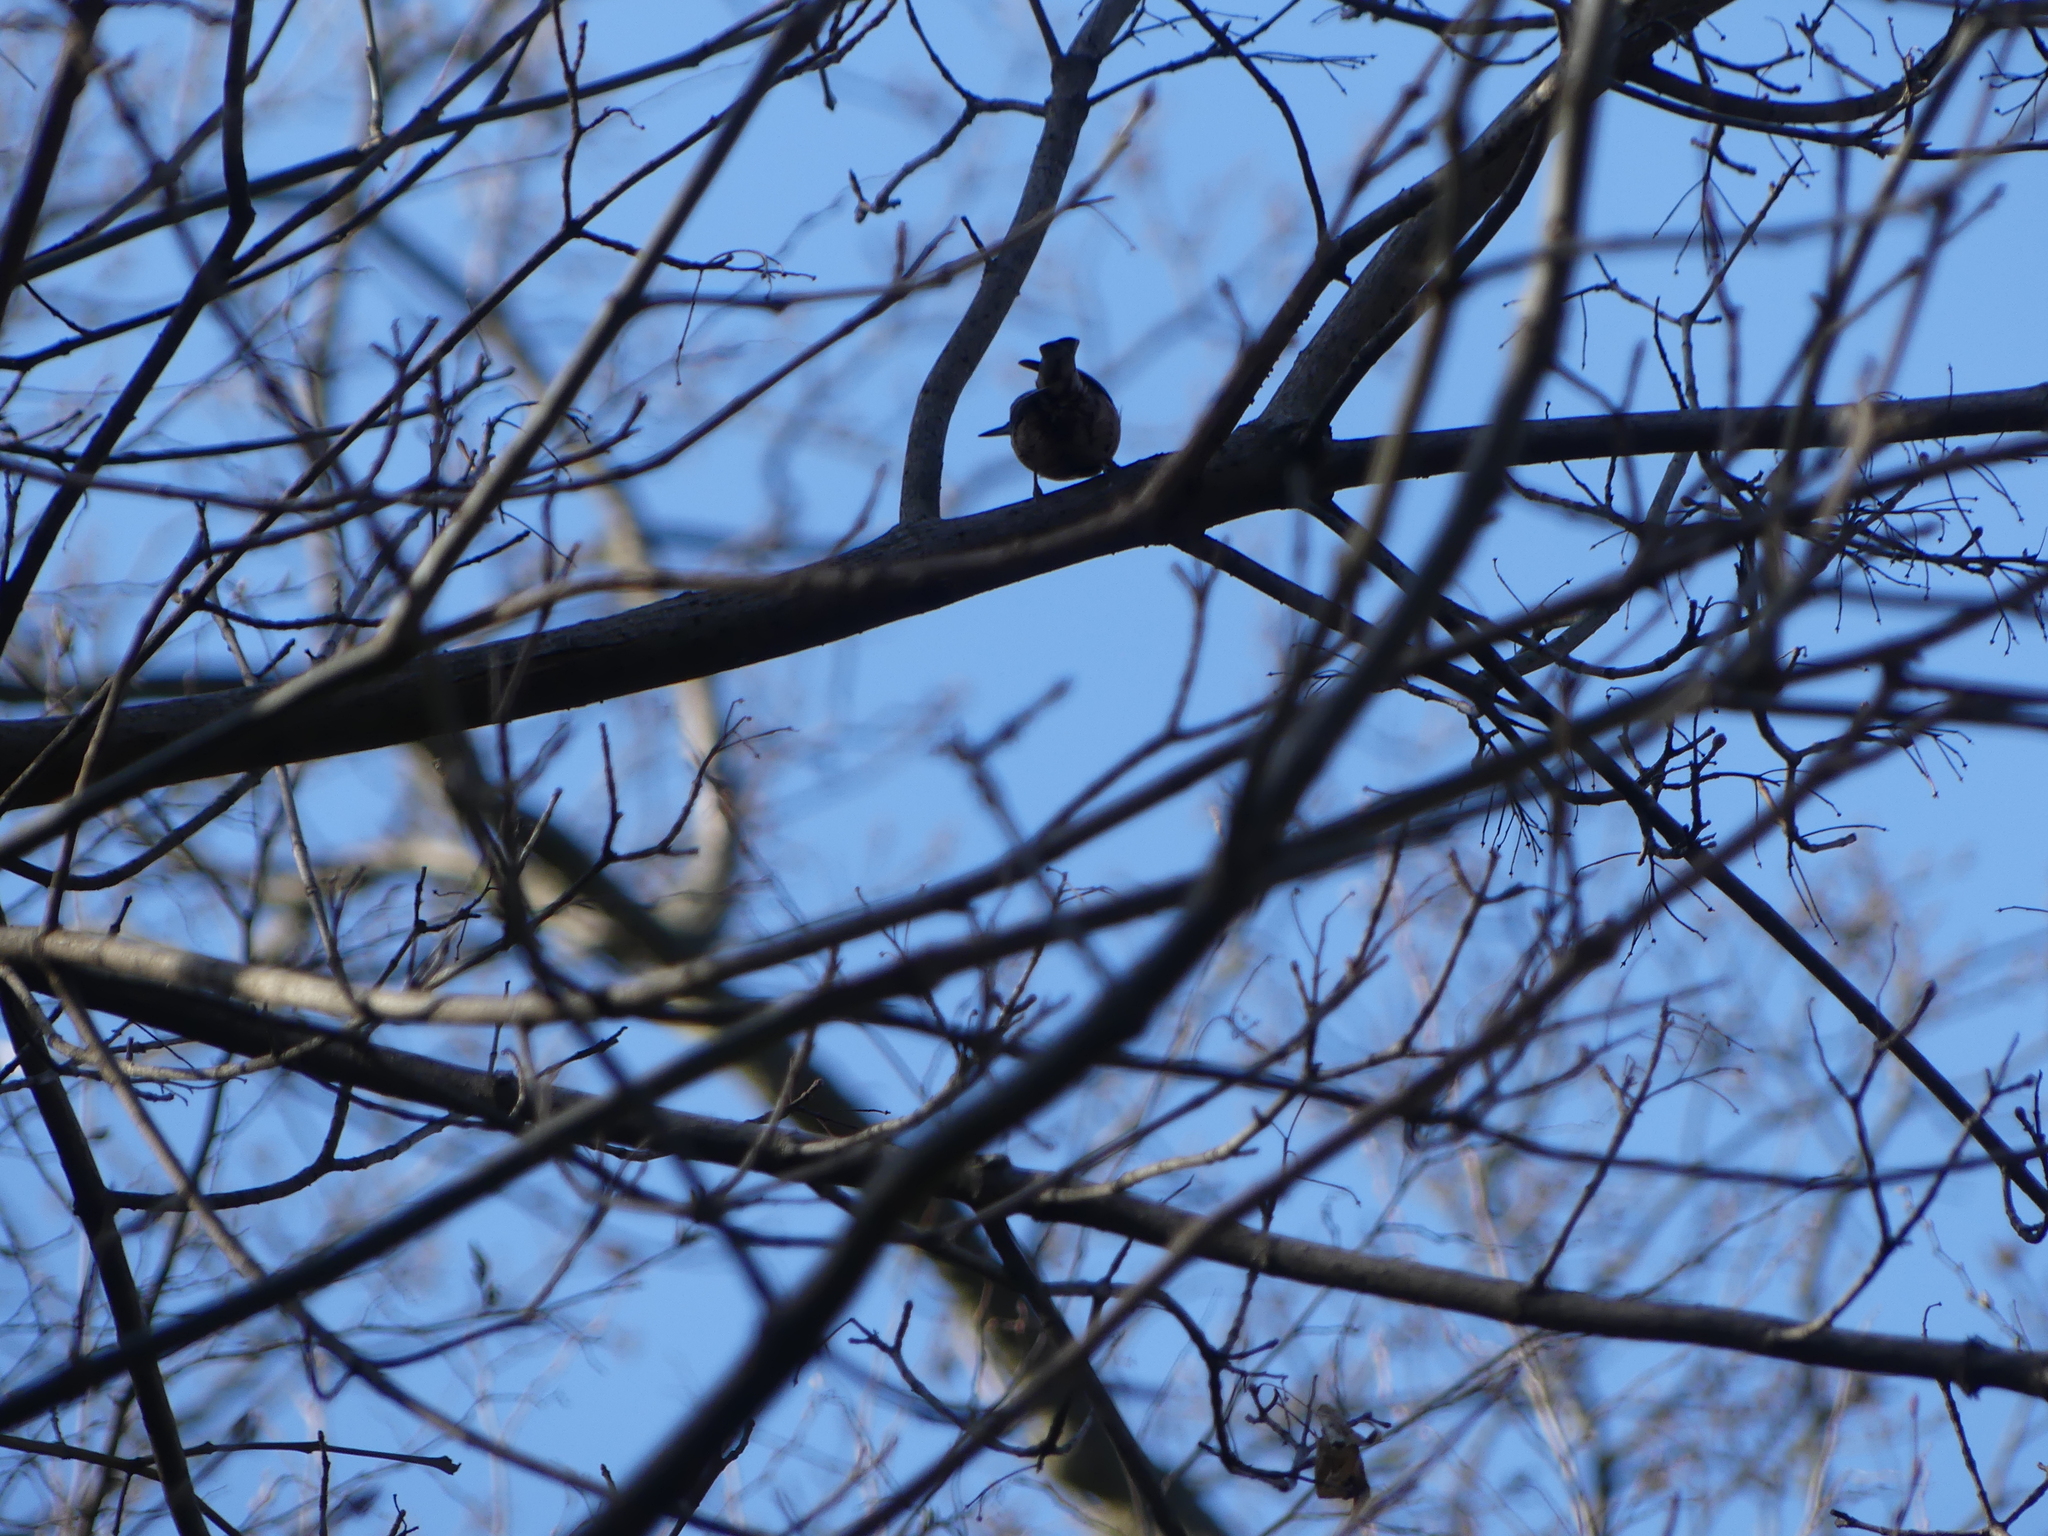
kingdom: Animalia
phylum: Chordata
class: Aves
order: Passeriformes
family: Sittidae
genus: Sitta
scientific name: Sitta europaea
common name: Eurasian nuthatch
